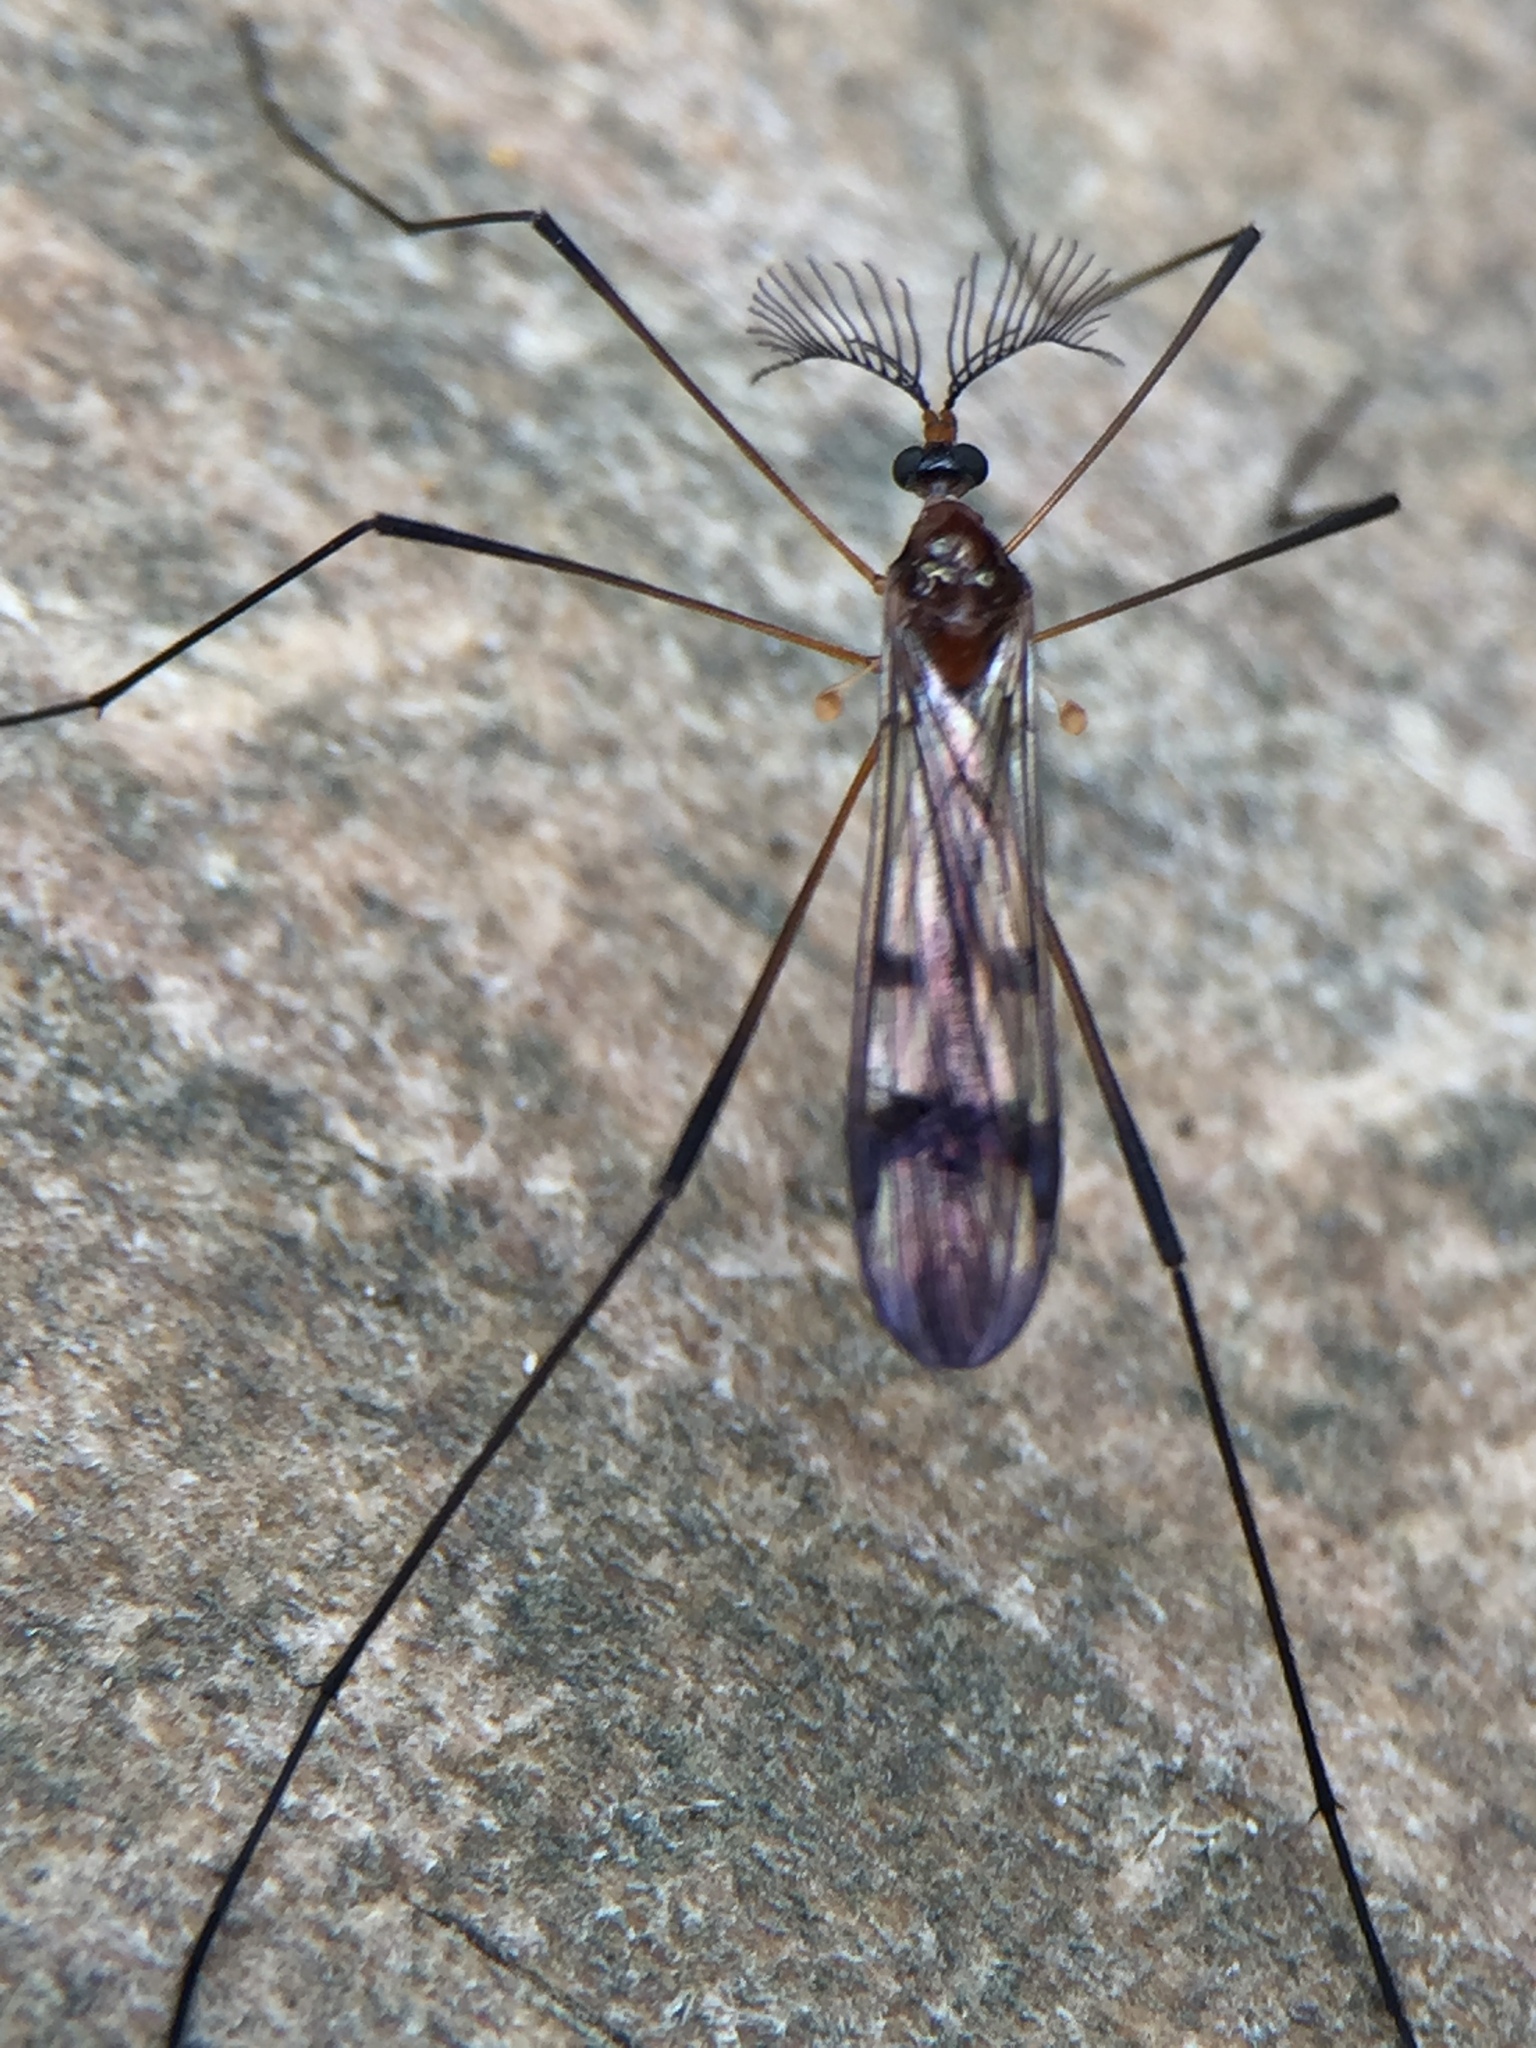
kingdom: Animalia
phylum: Arthropoda
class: Insecta
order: Diptera
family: Limoniidae
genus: Gynoplistia
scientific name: Gynoplistia cuprea
